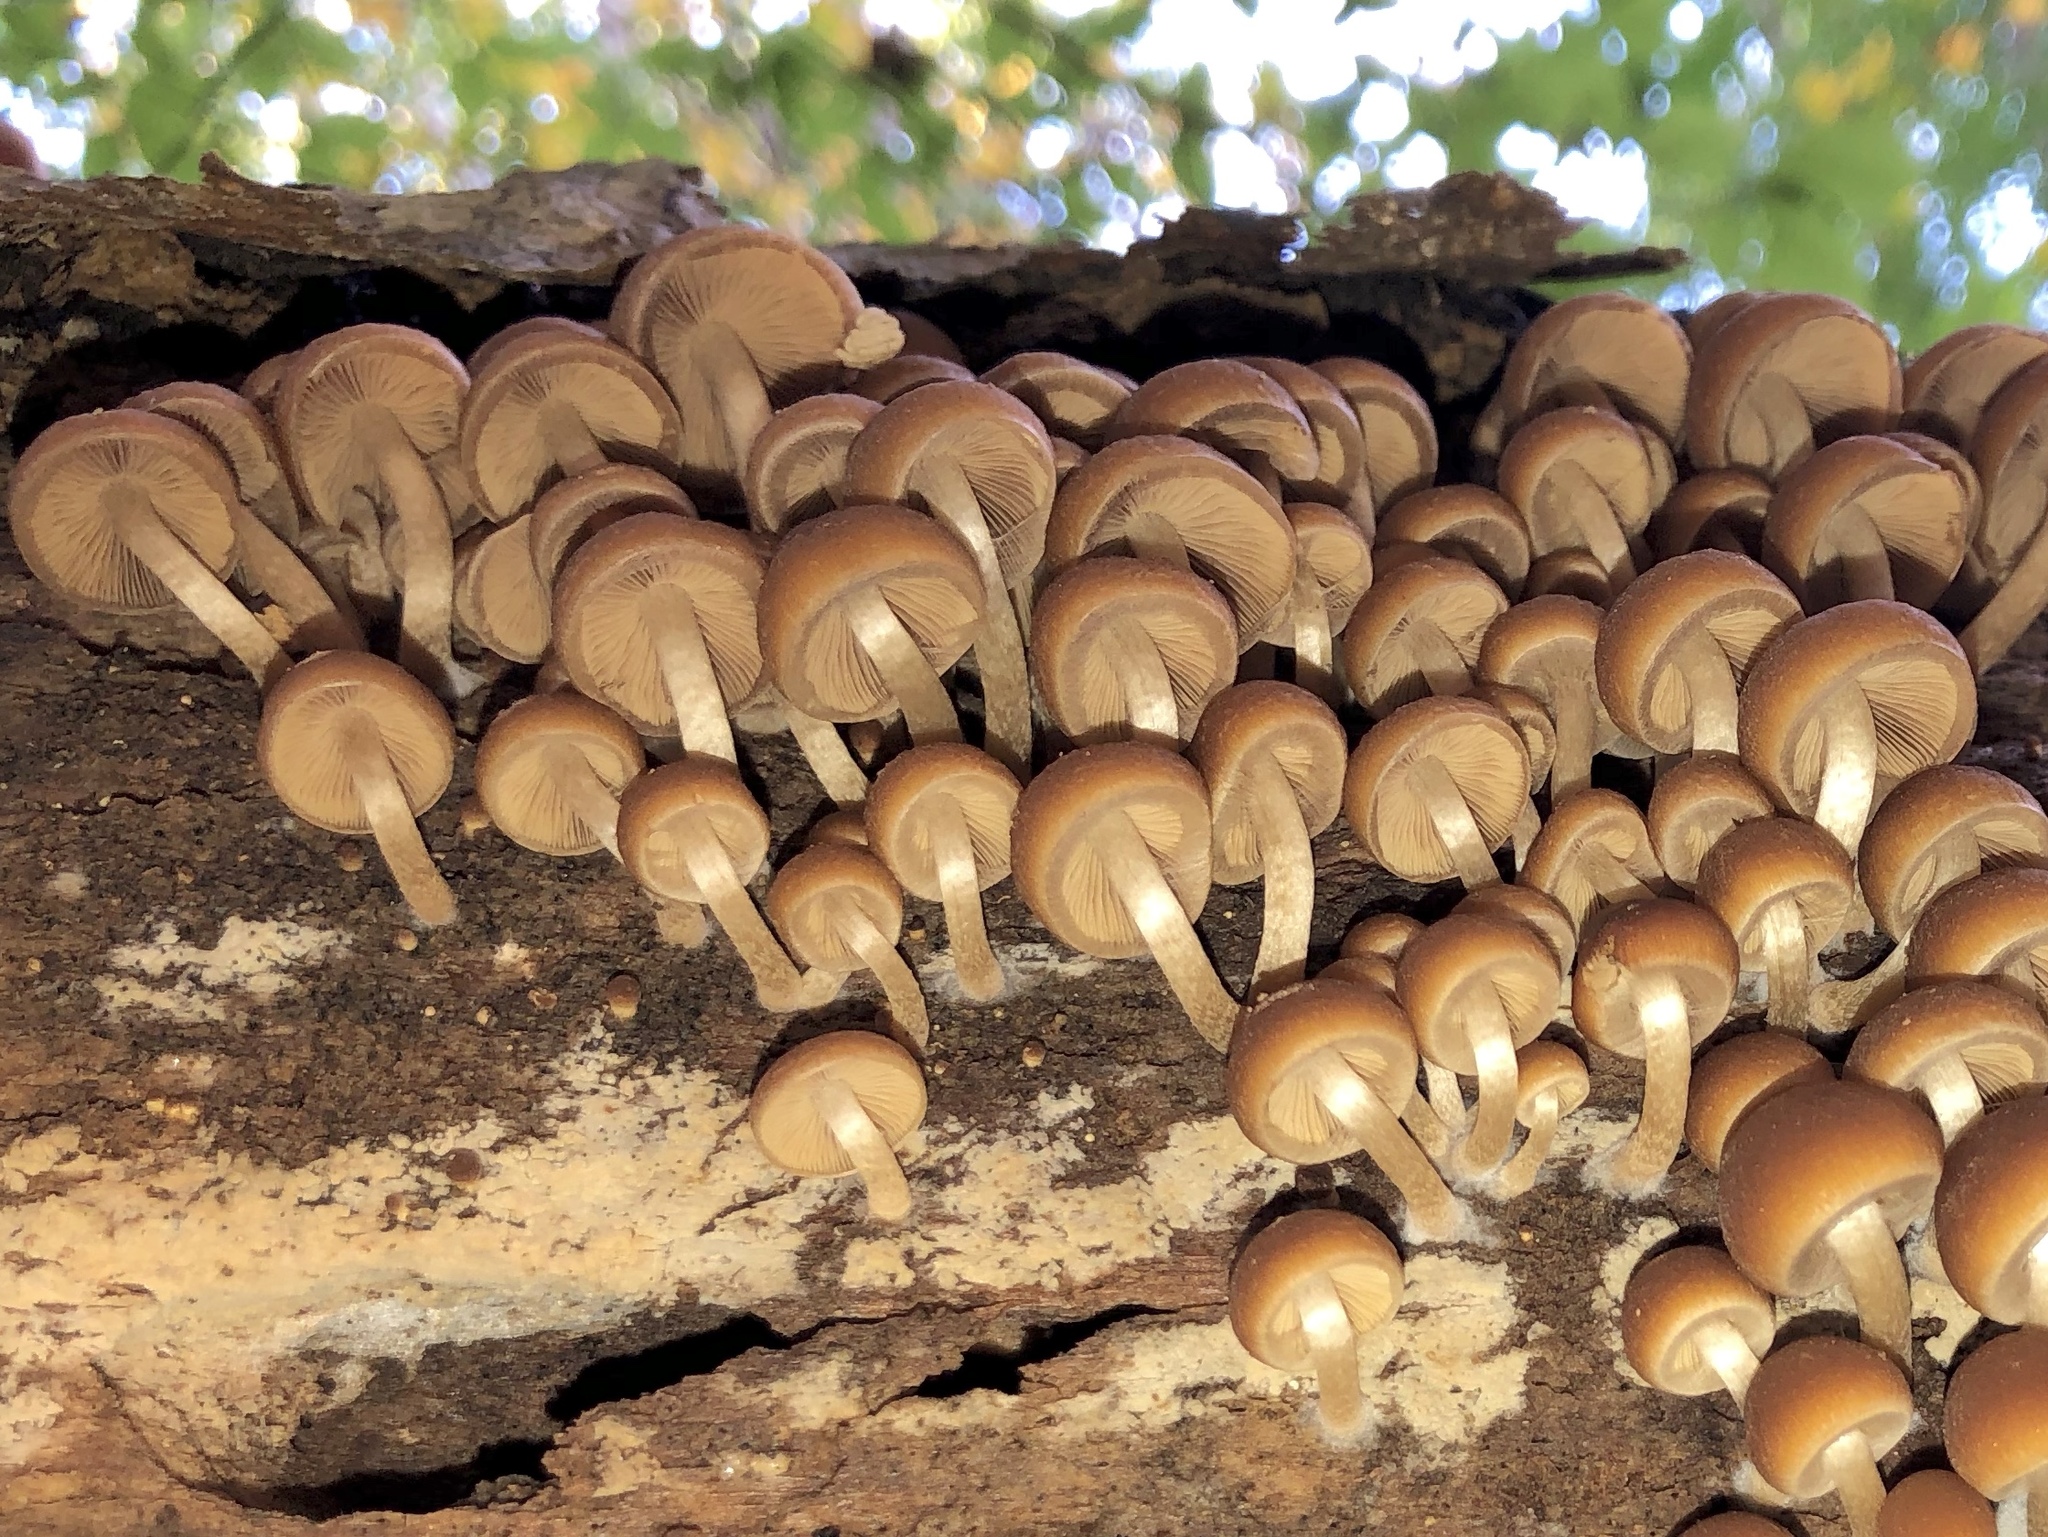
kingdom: Fungi
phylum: Basidiomycota
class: Agaricomycetes
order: Agaricales
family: Psathyrellaceae
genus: Psathyrella
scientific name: Psathyrella piluliformis
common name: Common stump brittlestem
